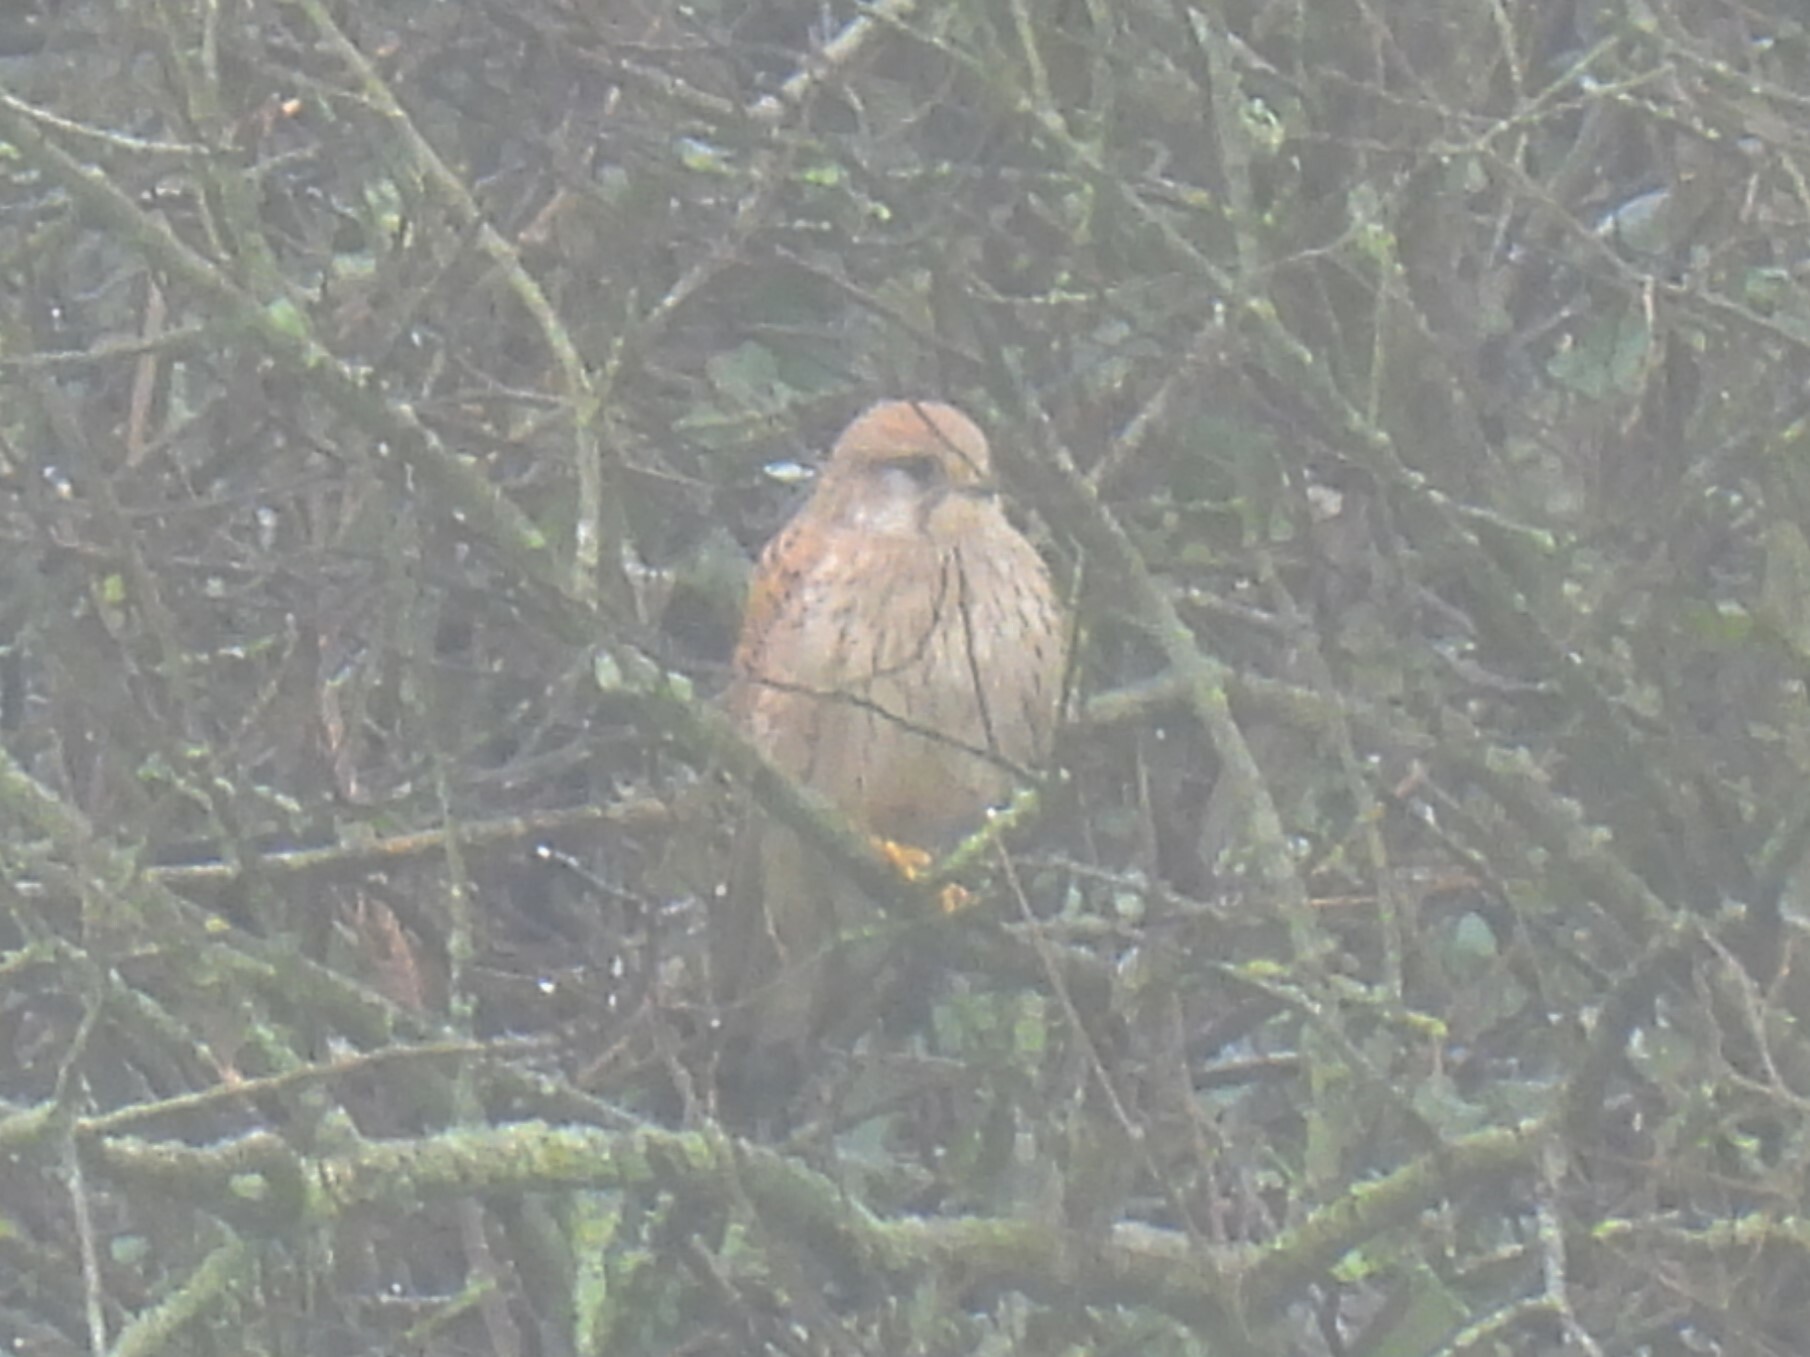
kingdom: Animalia
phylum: Chordata
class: Aves
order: Falconiformes
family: Falconidae
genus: Falco
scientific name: Falco tinnunculus
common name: Common kestrel
